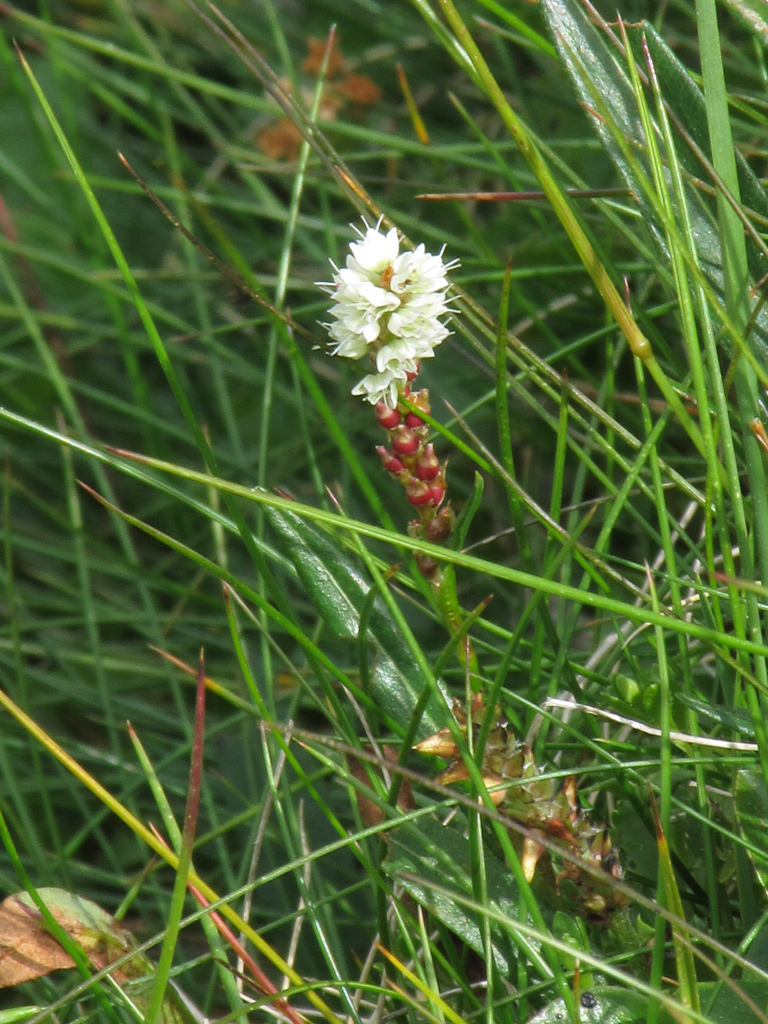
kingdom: Plantae
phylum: Tracheophyta
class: Magnoliopsida
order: Caryophyllales
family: Polygonaceae
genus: Bistorta
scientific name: Bistorta vivipara
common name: Alpine bistort
